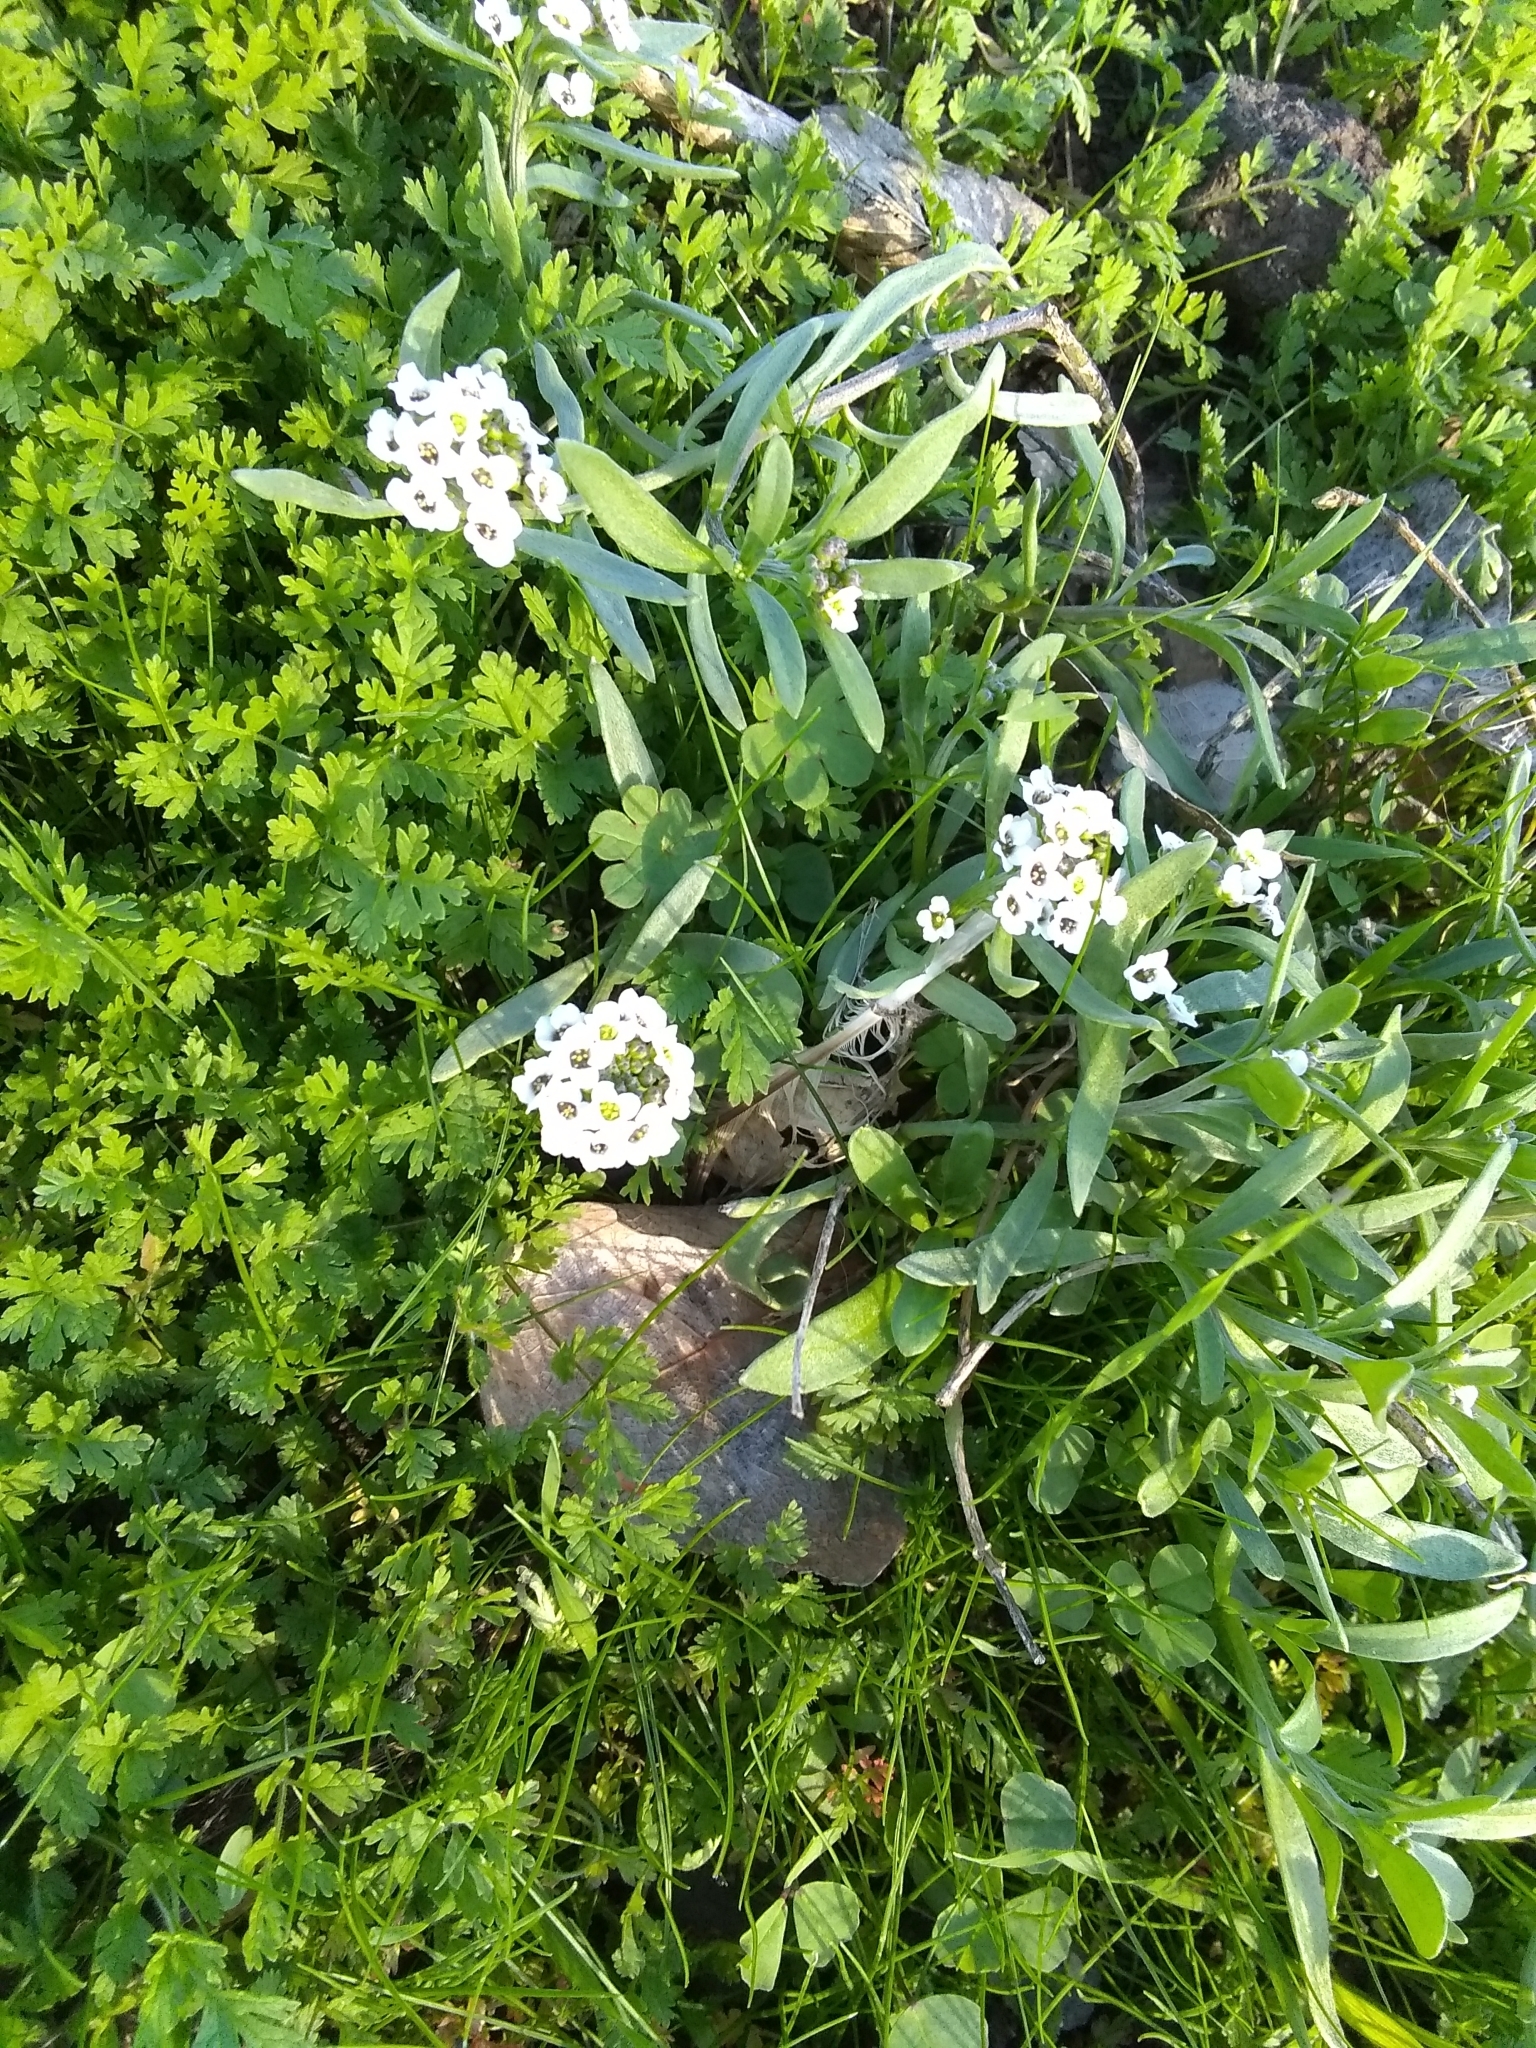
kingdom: Plantae
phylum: Tracheophyta
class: Magnoliopsida
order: Brassicales
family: Brassicaceae
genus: Lobularia
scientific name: Lobularia maritima
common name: Sweet alison
